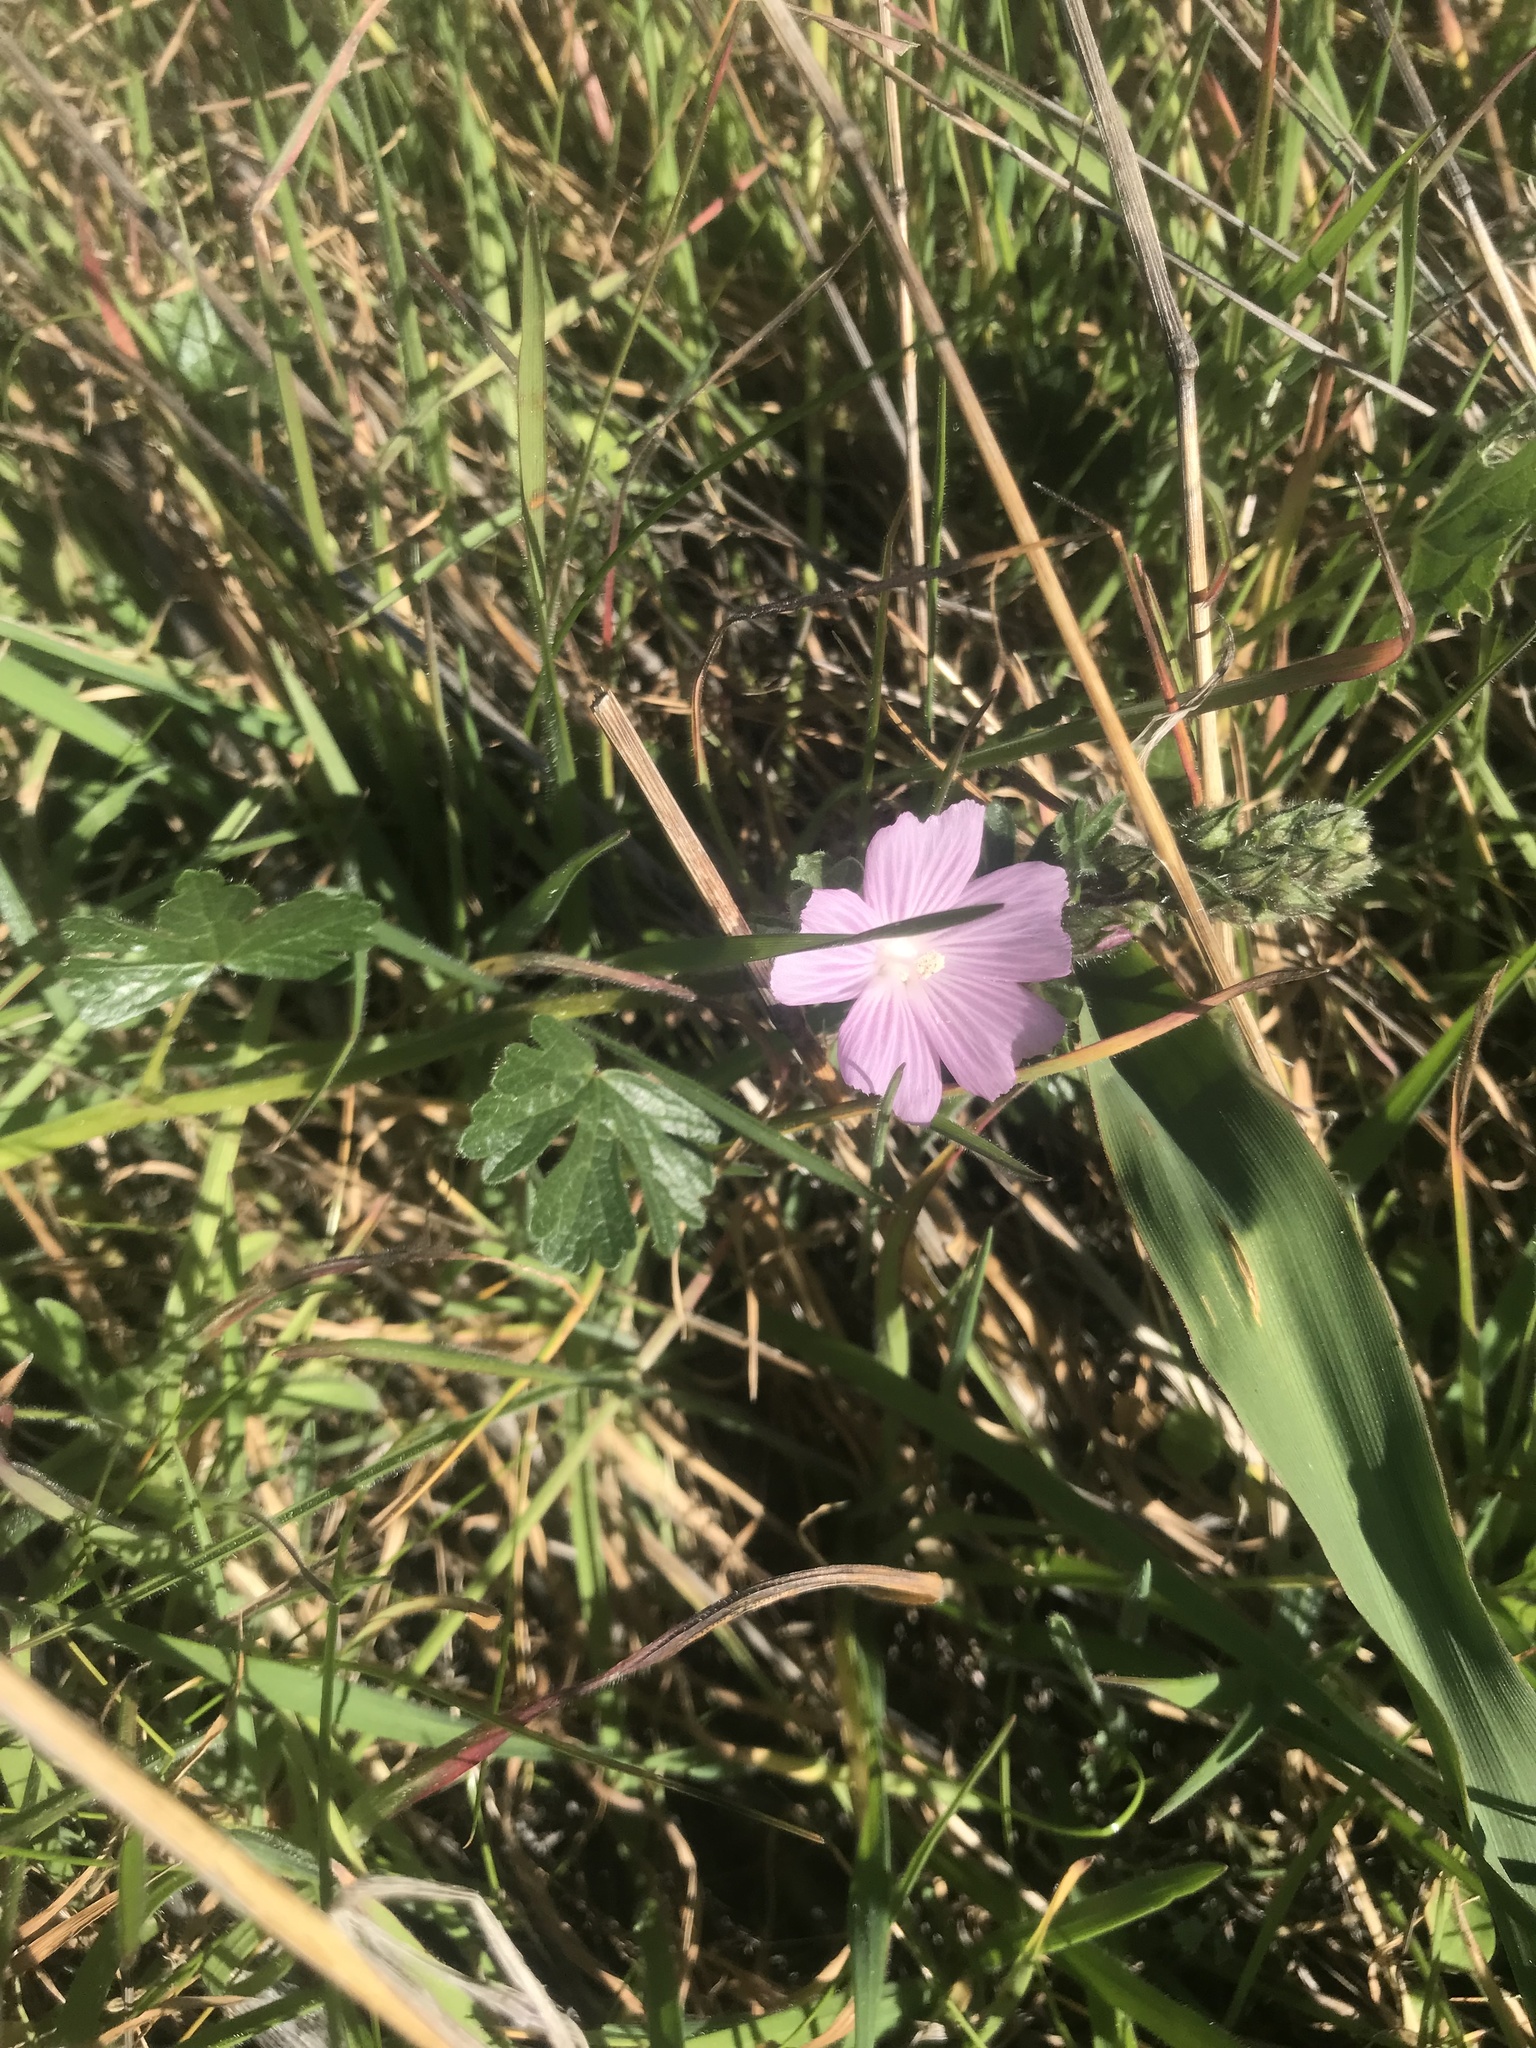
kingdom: Plantae
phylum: Tracheophyta
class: Magnoliopsida
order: Malvales
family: Malvaceae
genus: Sidalcea
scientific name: Sidalcea malviflora
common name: Greek mallow
